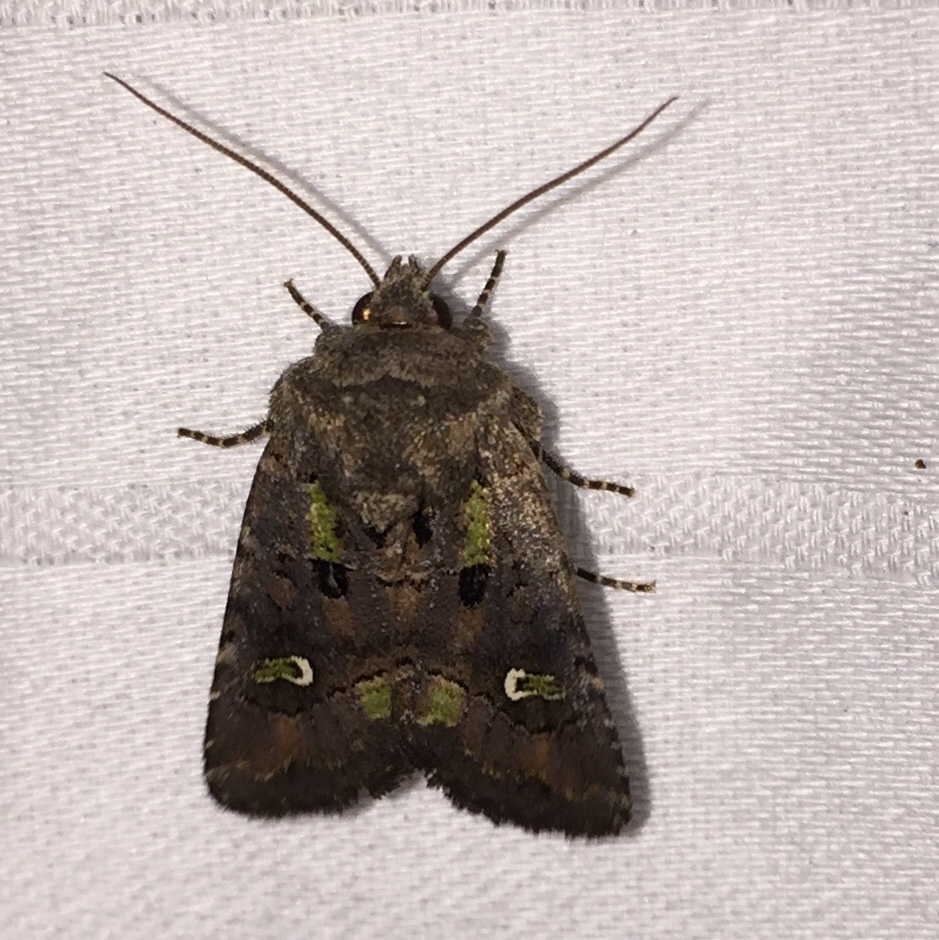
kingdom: Animalia
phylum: Arthropoda
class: Insecta
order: Lepidoptera
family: Noctuidae
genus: Lacinipolia
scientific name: Lacinipolia renigera
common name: Kidney-spotted minor
